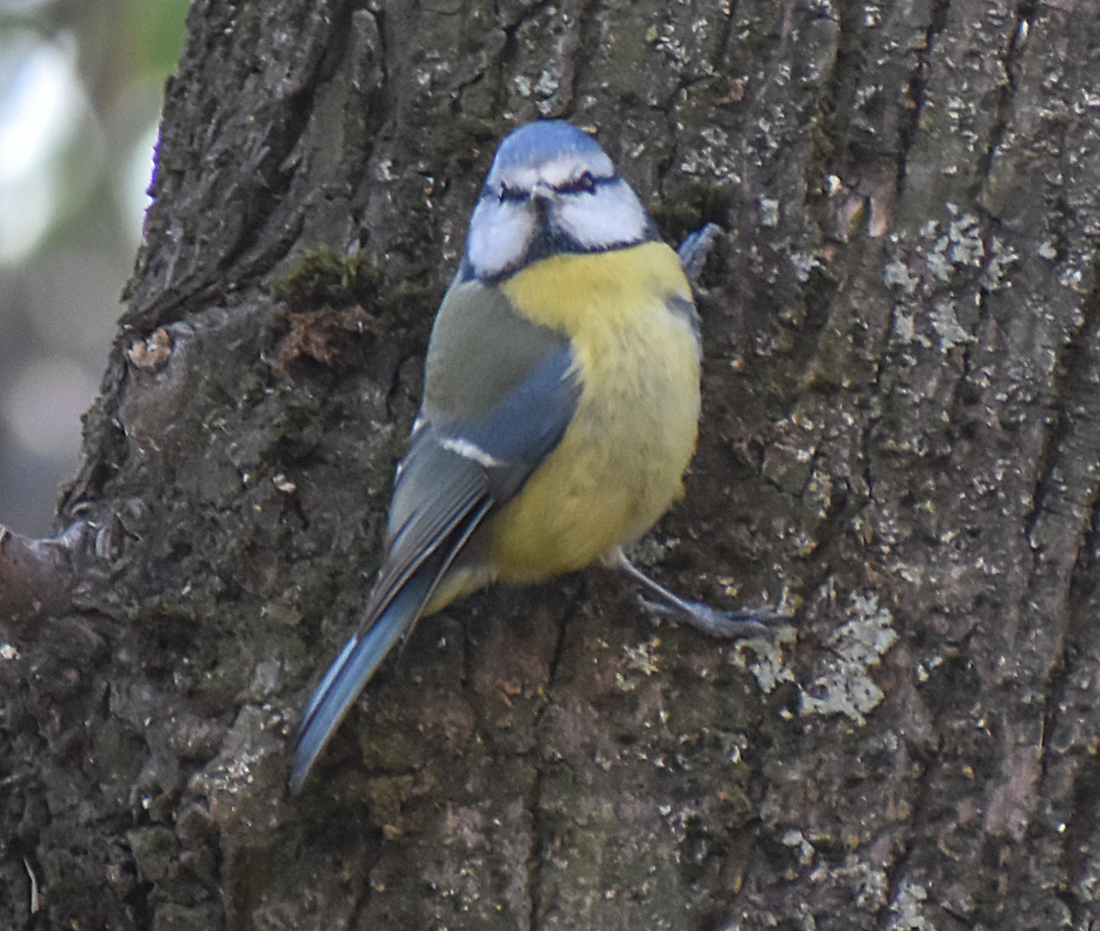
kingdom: Animalia
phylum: Chordata
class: Aves
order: Passeriformes
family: Paridae
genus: Cyanistes
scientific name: Cyanistes caeruleus
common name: Eurasian blue tit
